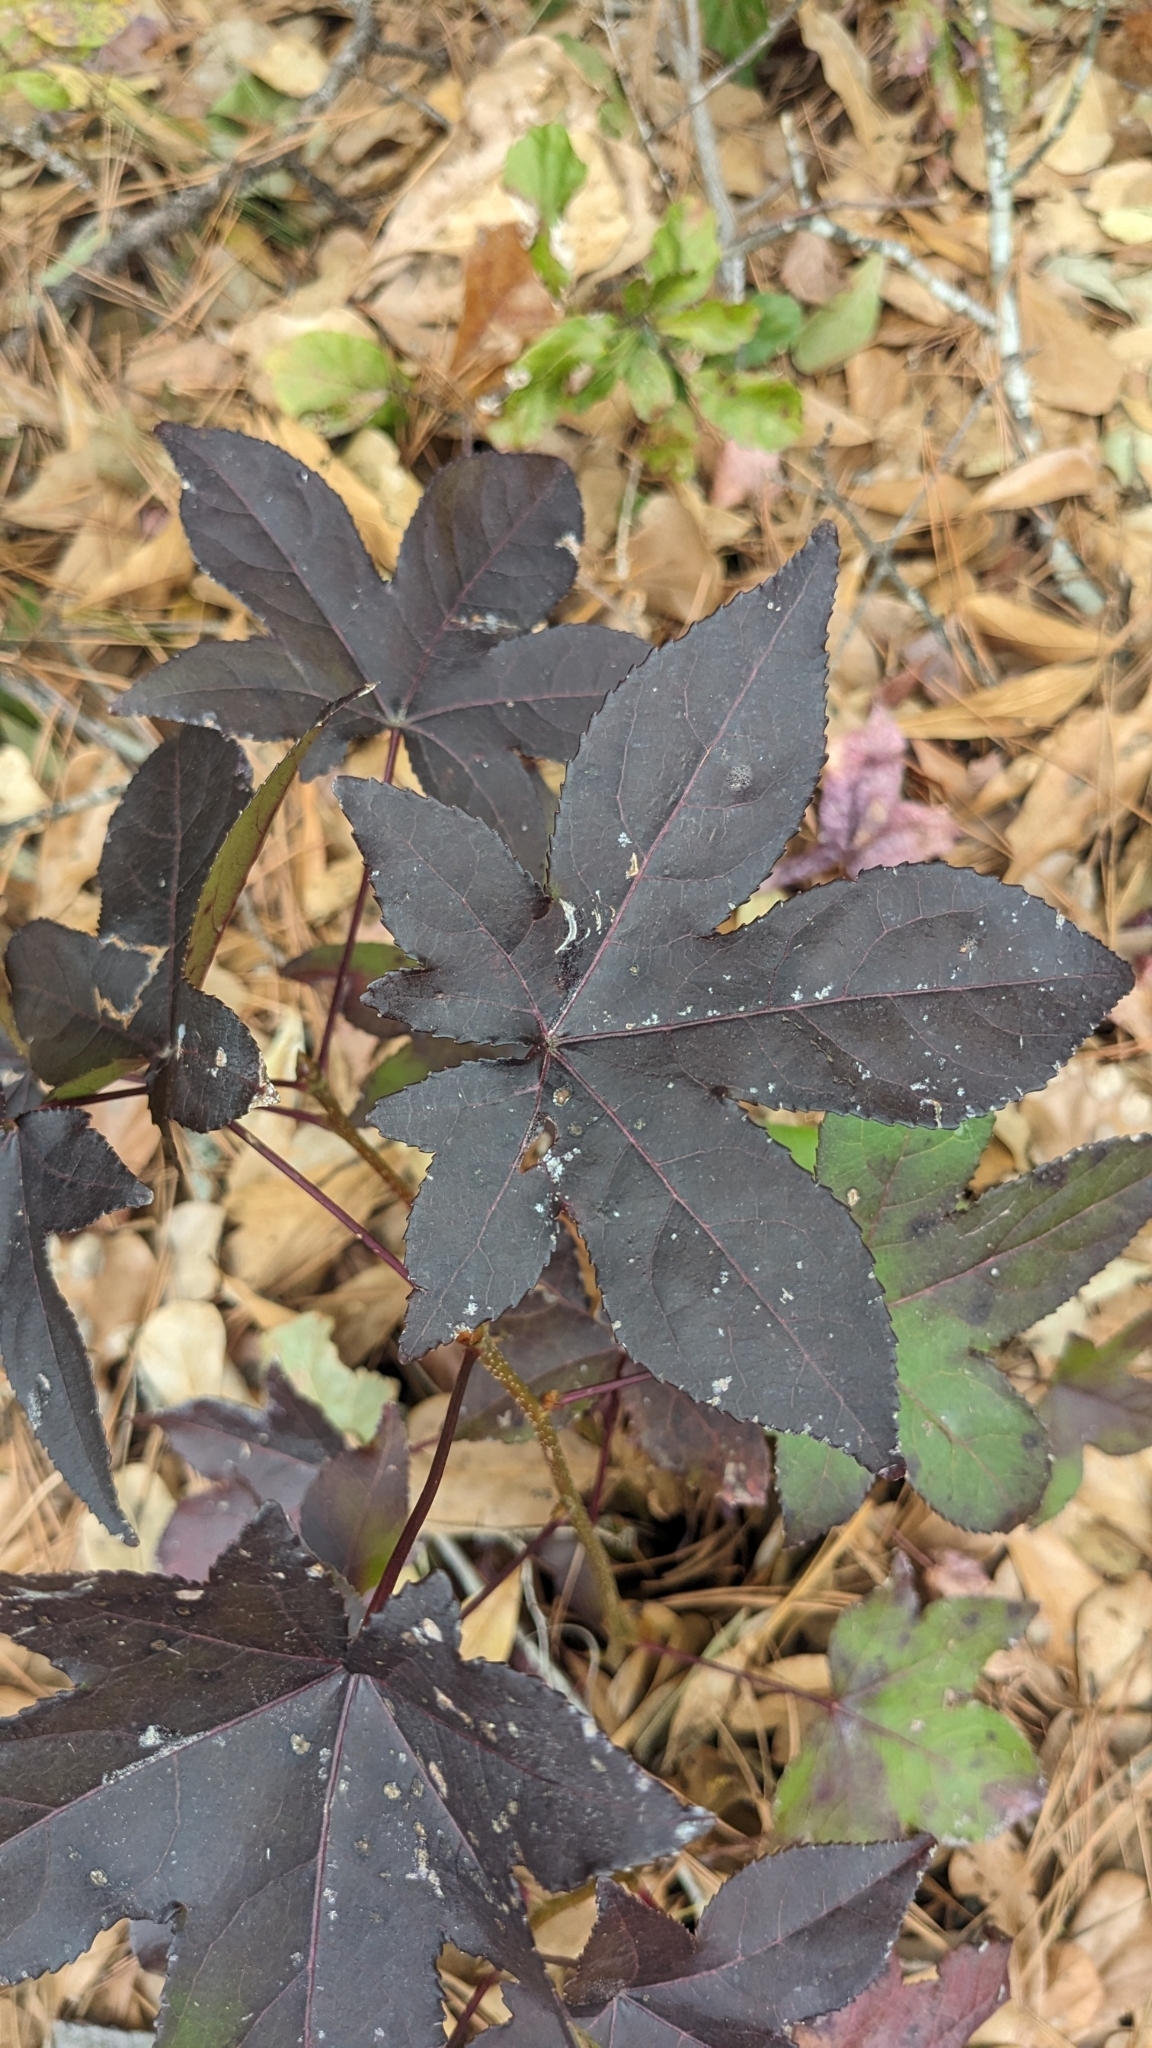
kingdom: Plantae
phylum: Tracheophyta
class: Magnoliopsida
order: Saxifragales
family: Altingiaceae
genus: Liquidambar
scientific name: Liquidambar styraciflua
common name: Sweet gum
